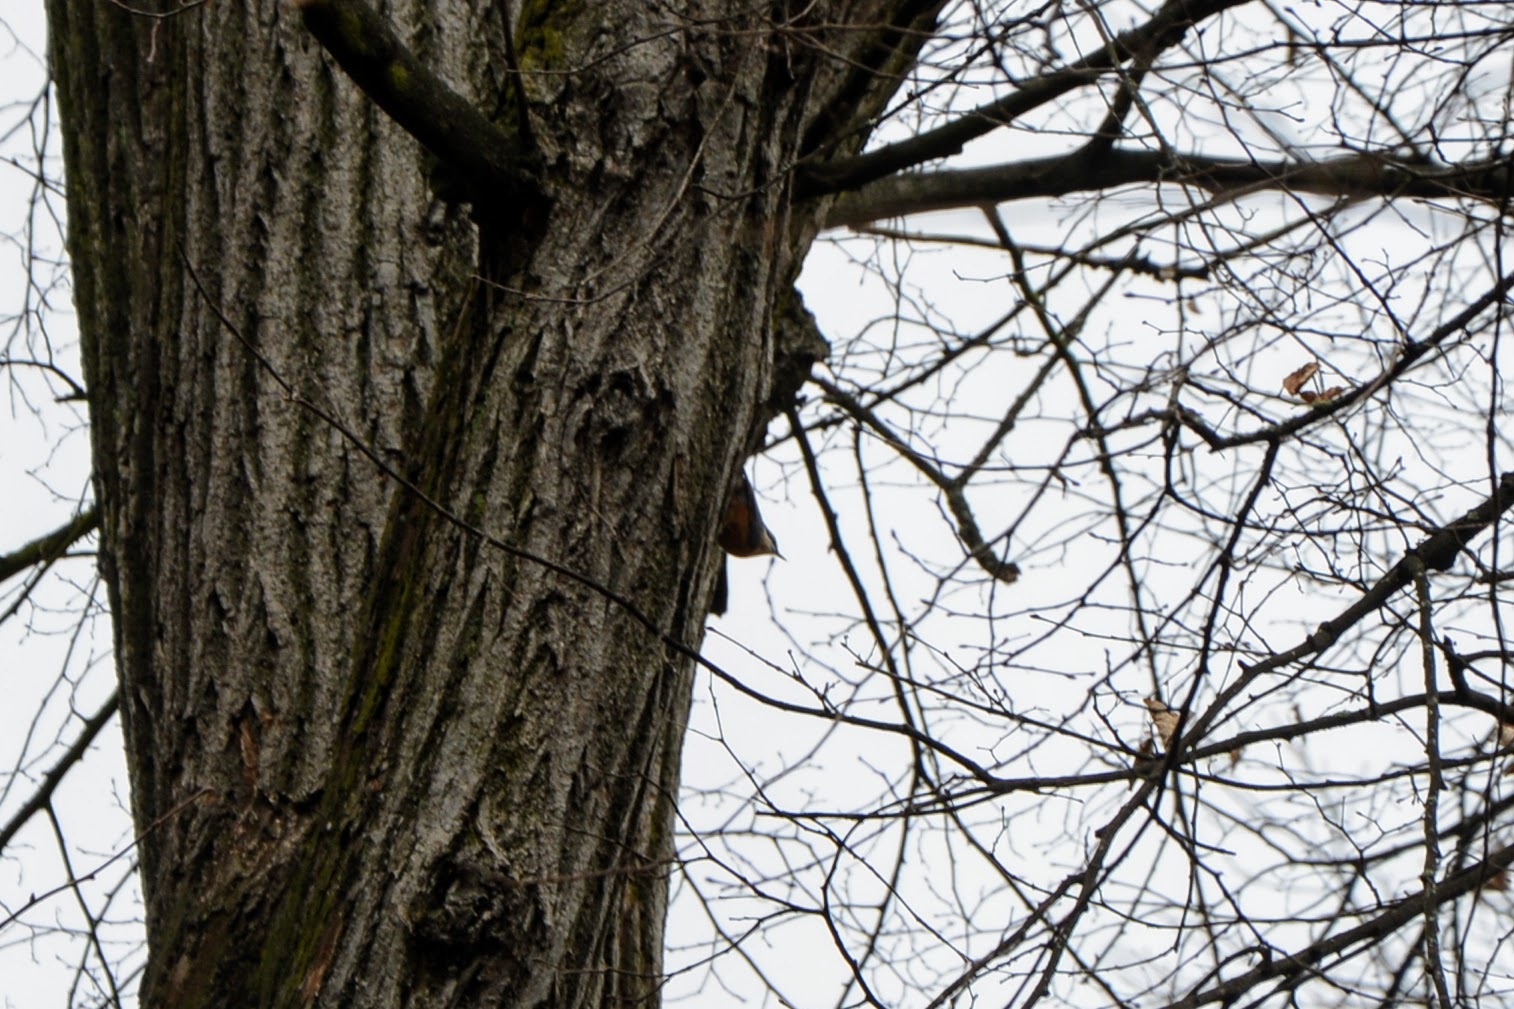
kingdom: Animalia
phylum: Chordata
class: Aves
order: Passeriformes
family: Sittidae
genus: Sitta
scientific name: Sitta europaea
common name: Eurasian nuthatch
